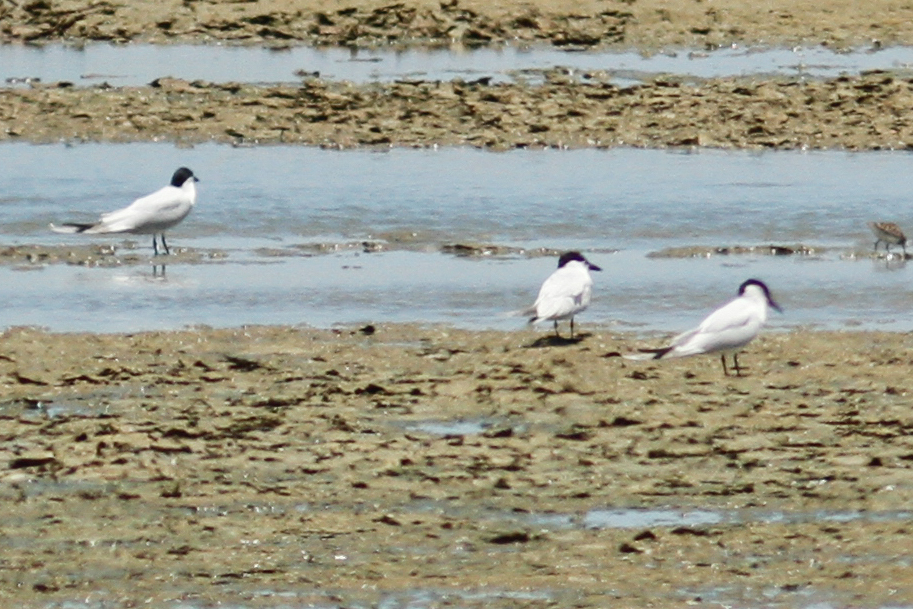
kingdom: Animalia
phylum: Chordata
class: Aves
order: Charadriiformes
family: Laridae
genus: Gelochelidon
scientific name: Gelochelidon nilotica
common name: Gull-billed tern
